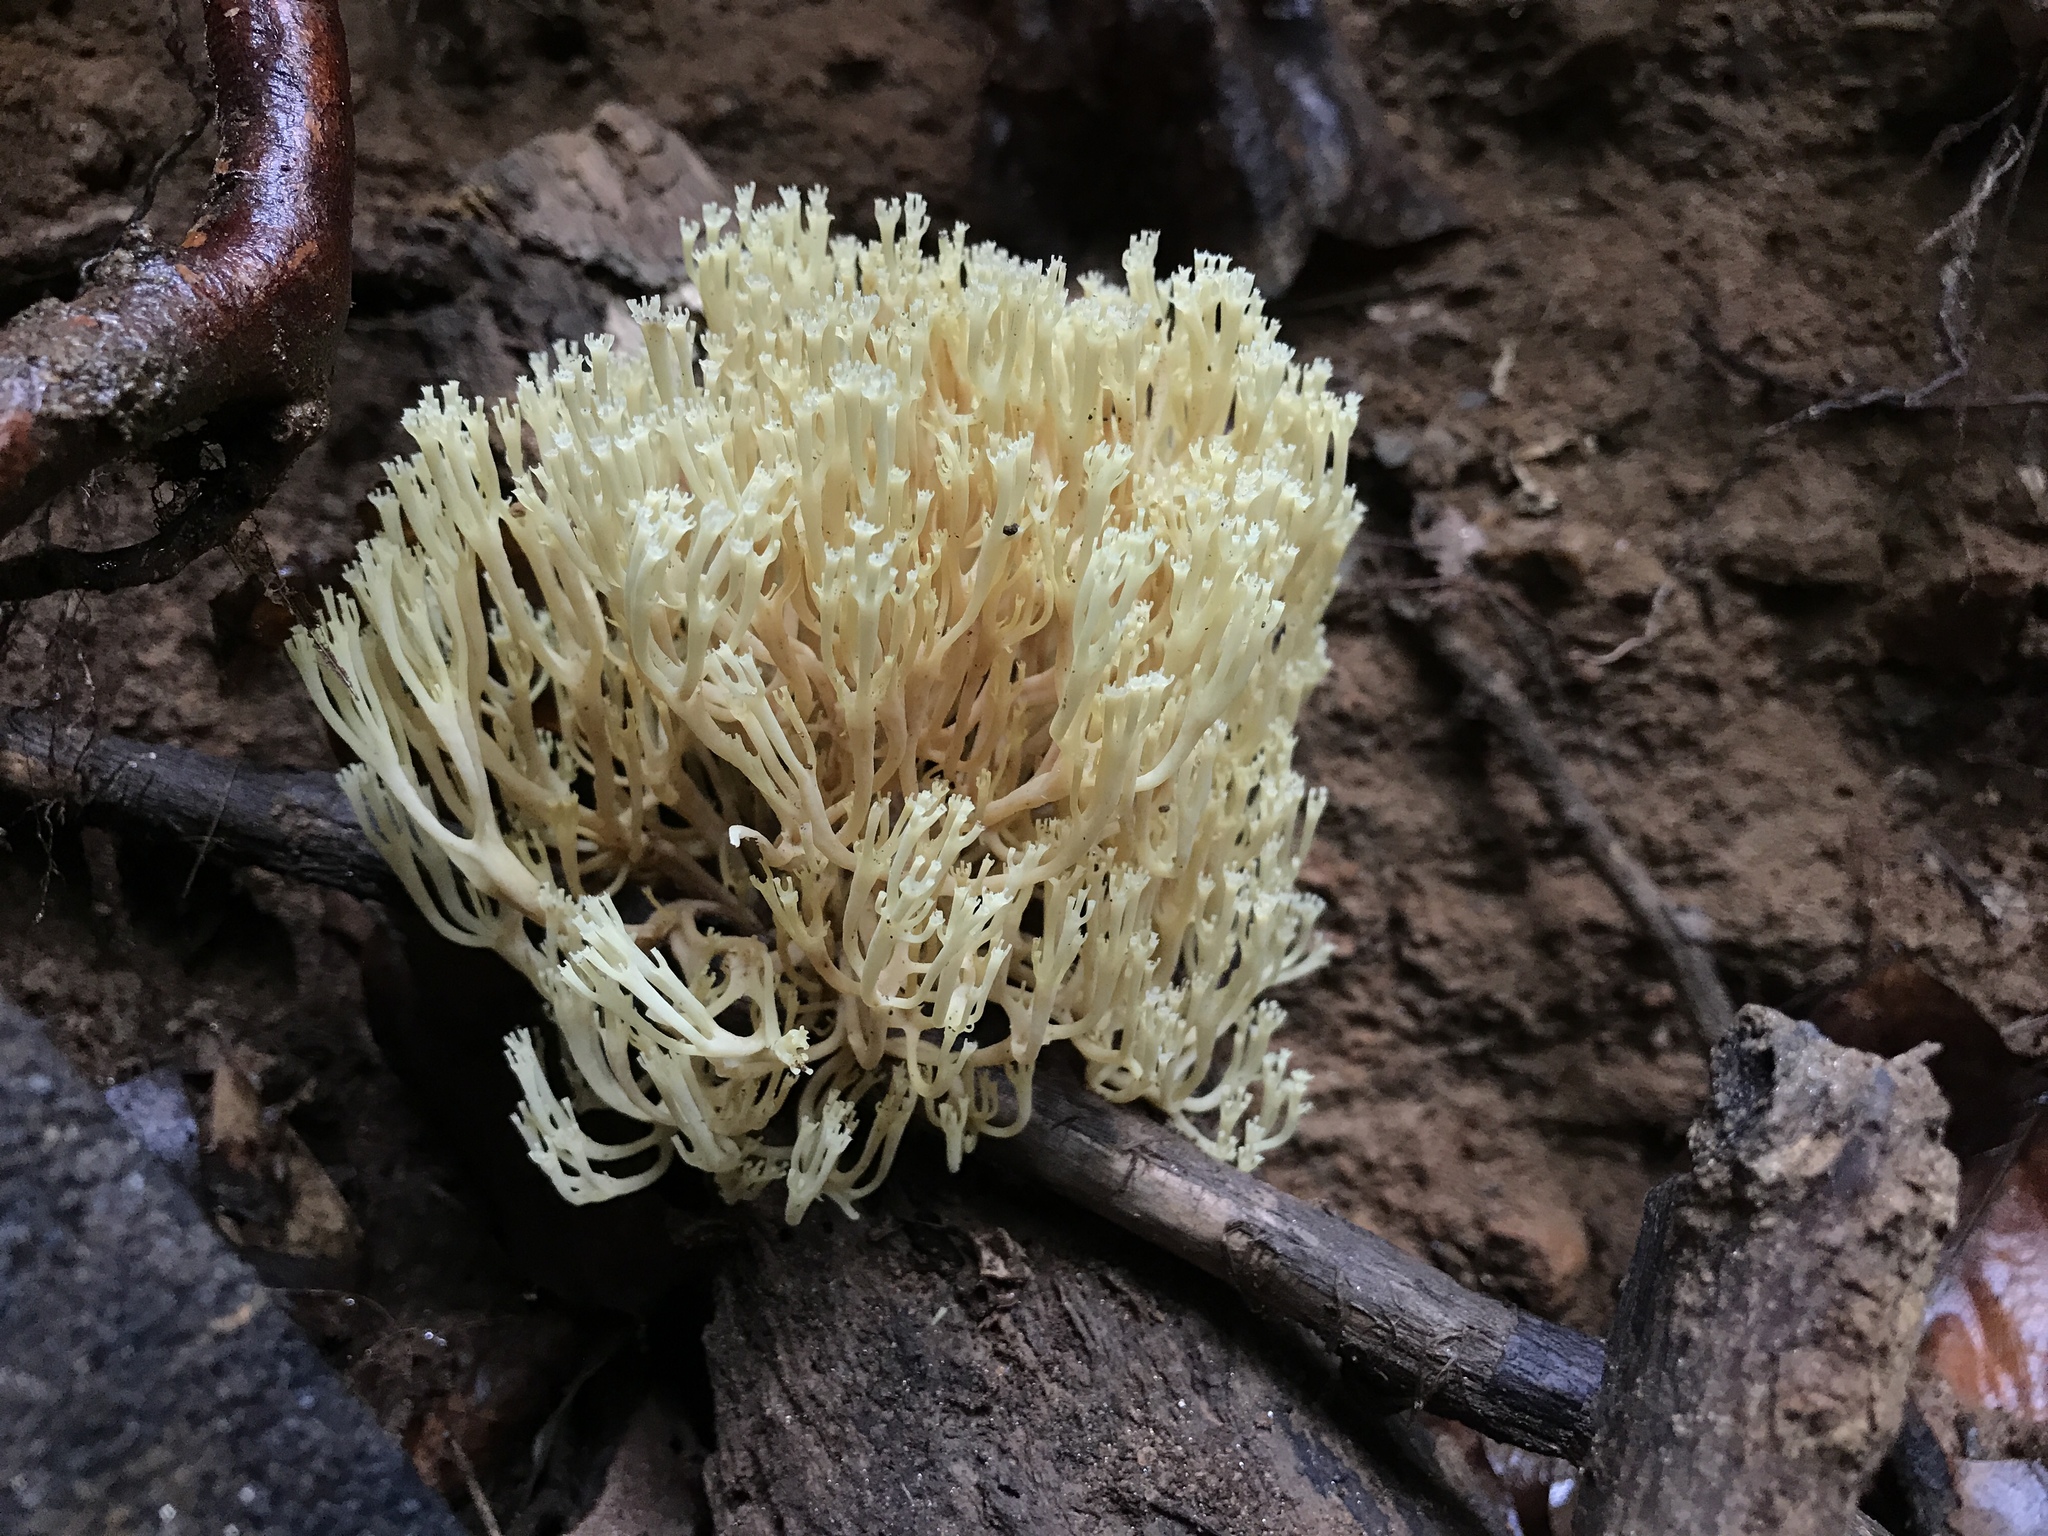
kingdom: Fungi
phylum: Basidiomycota
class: Agaricomycetes
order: Russulales
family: Auriscalpiaceae
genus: Artomyces
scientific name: Artomyces pyxidatus
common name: Crown-tipped coral fungus
